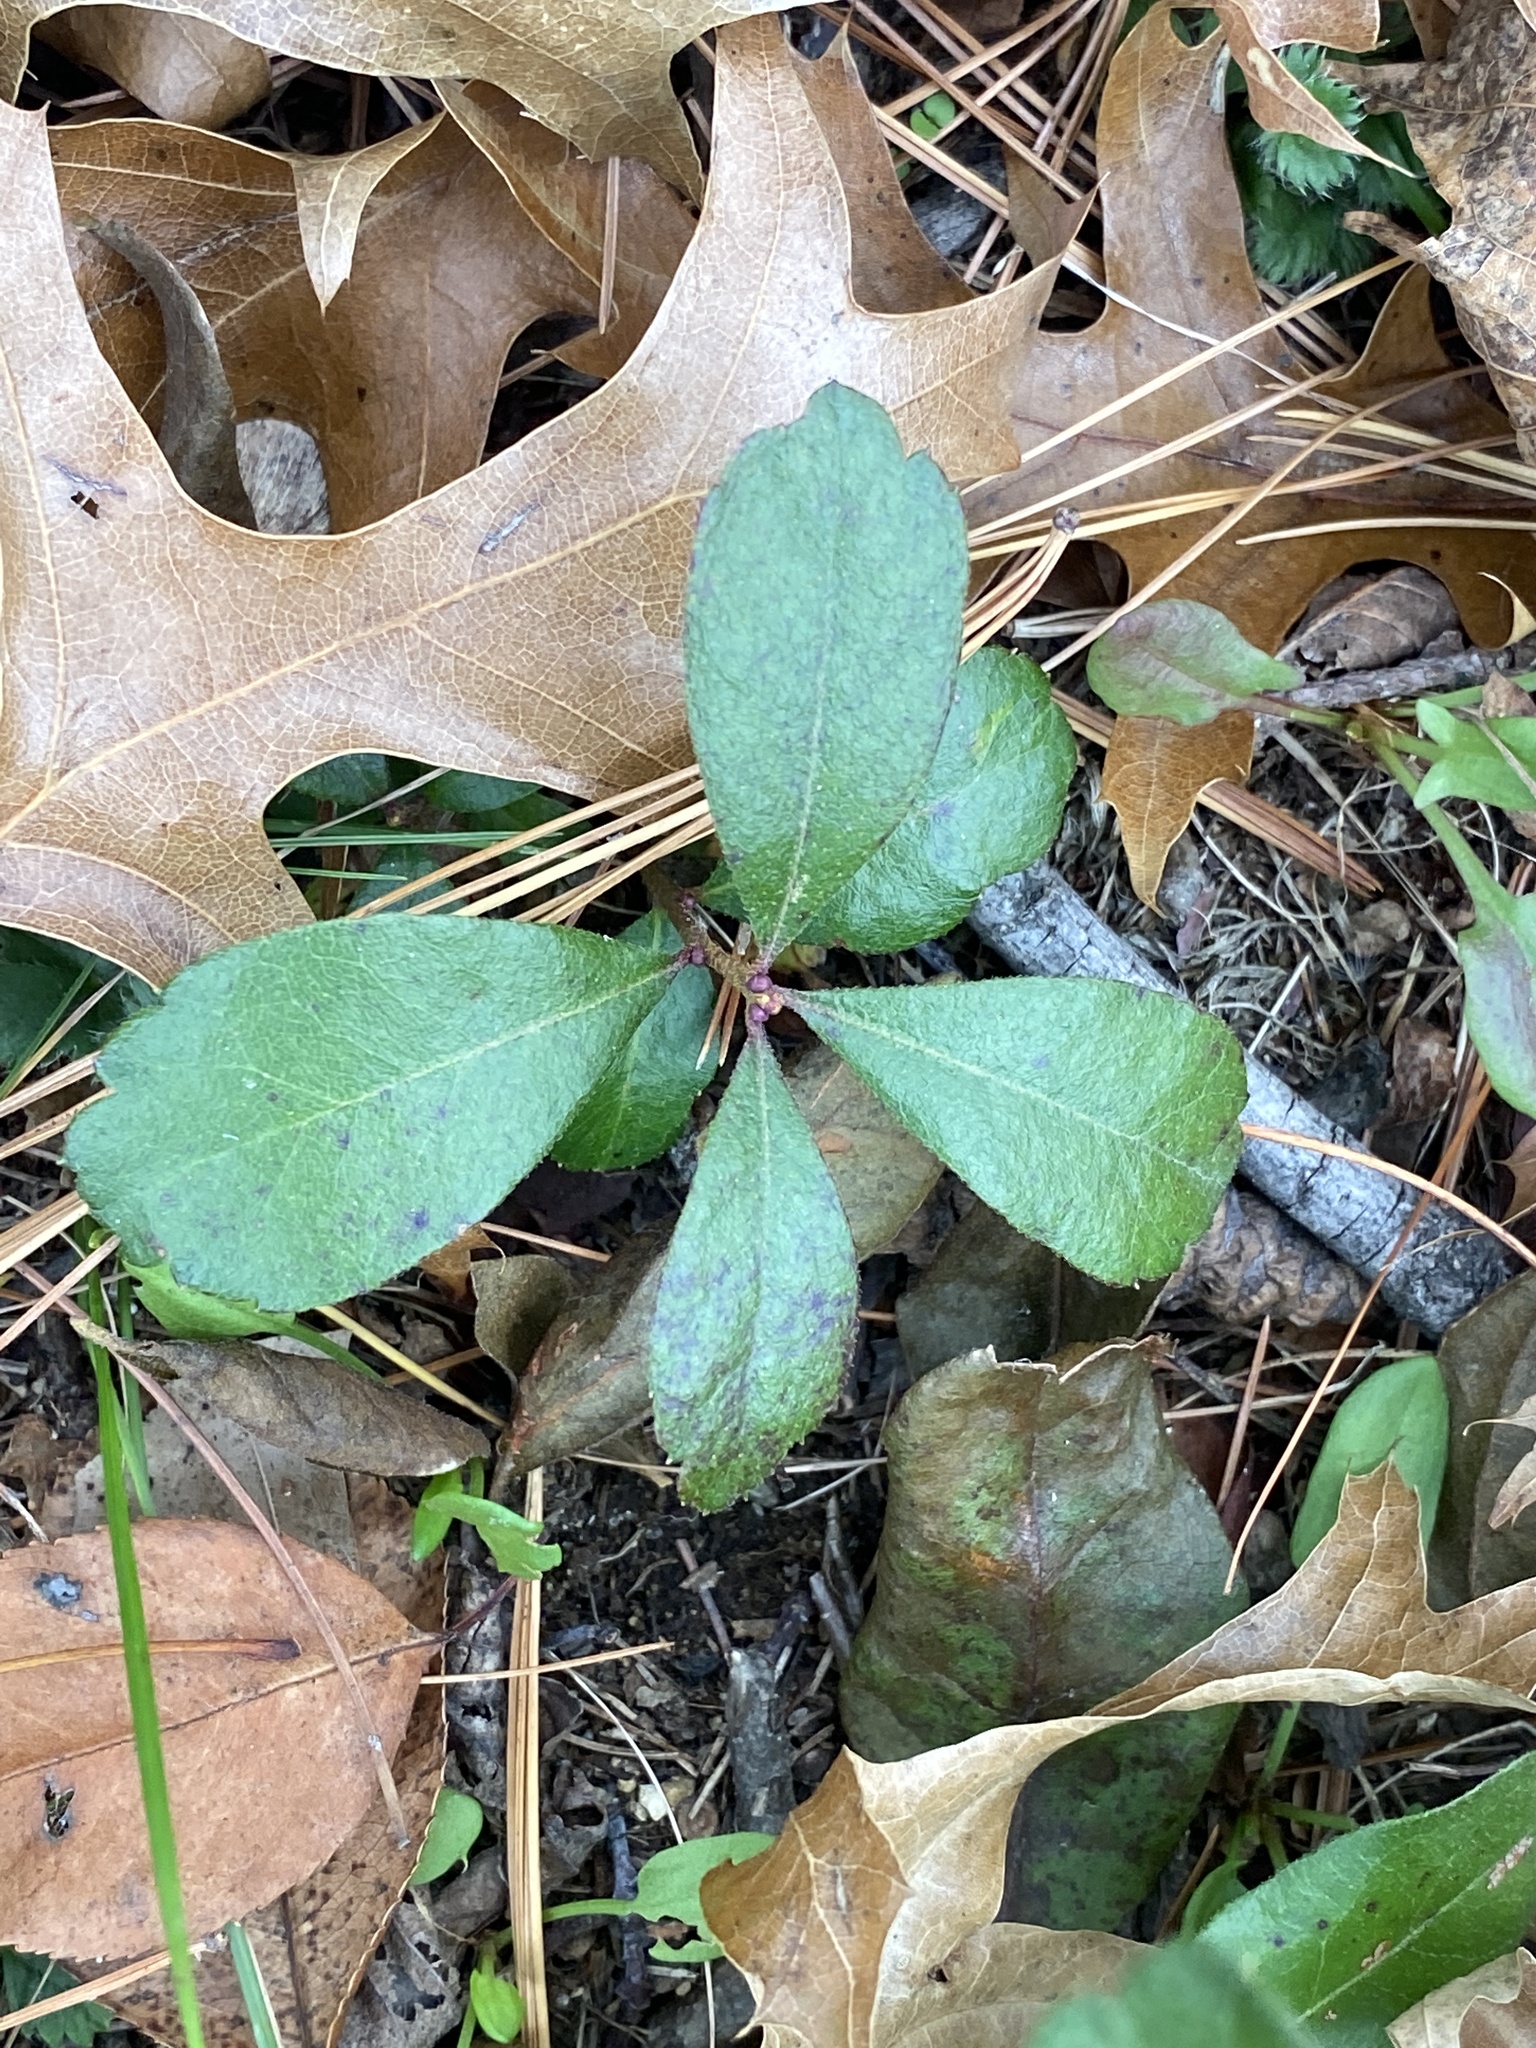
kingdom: Plantae
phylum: Tracheophyta
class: Magnoliopsida
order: Fagales
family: Myricaceae
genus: Morella
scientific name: Morella pensylvanica
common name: Northern bayberry
